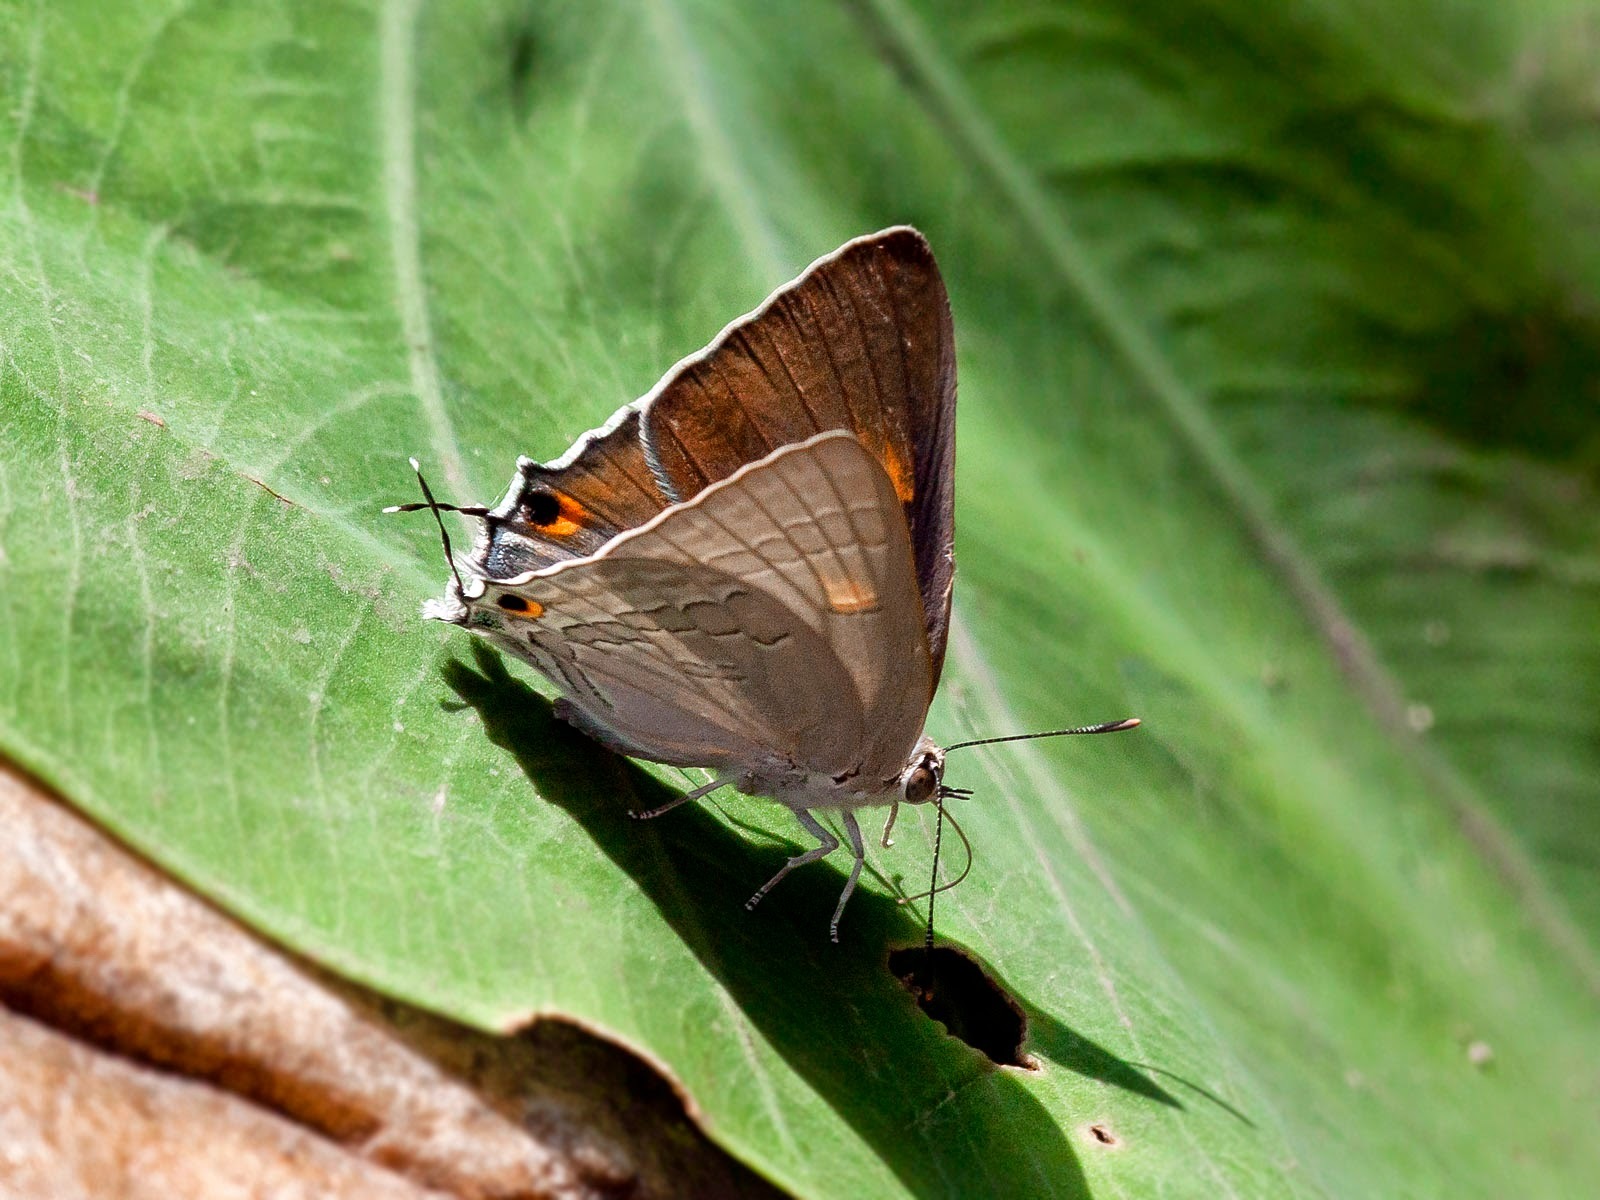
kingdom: Animalia
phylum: Arthropoda
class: Insecta
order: Lepidoptera
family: Lycaenidae
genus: Deudorix
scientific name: Deudorix
